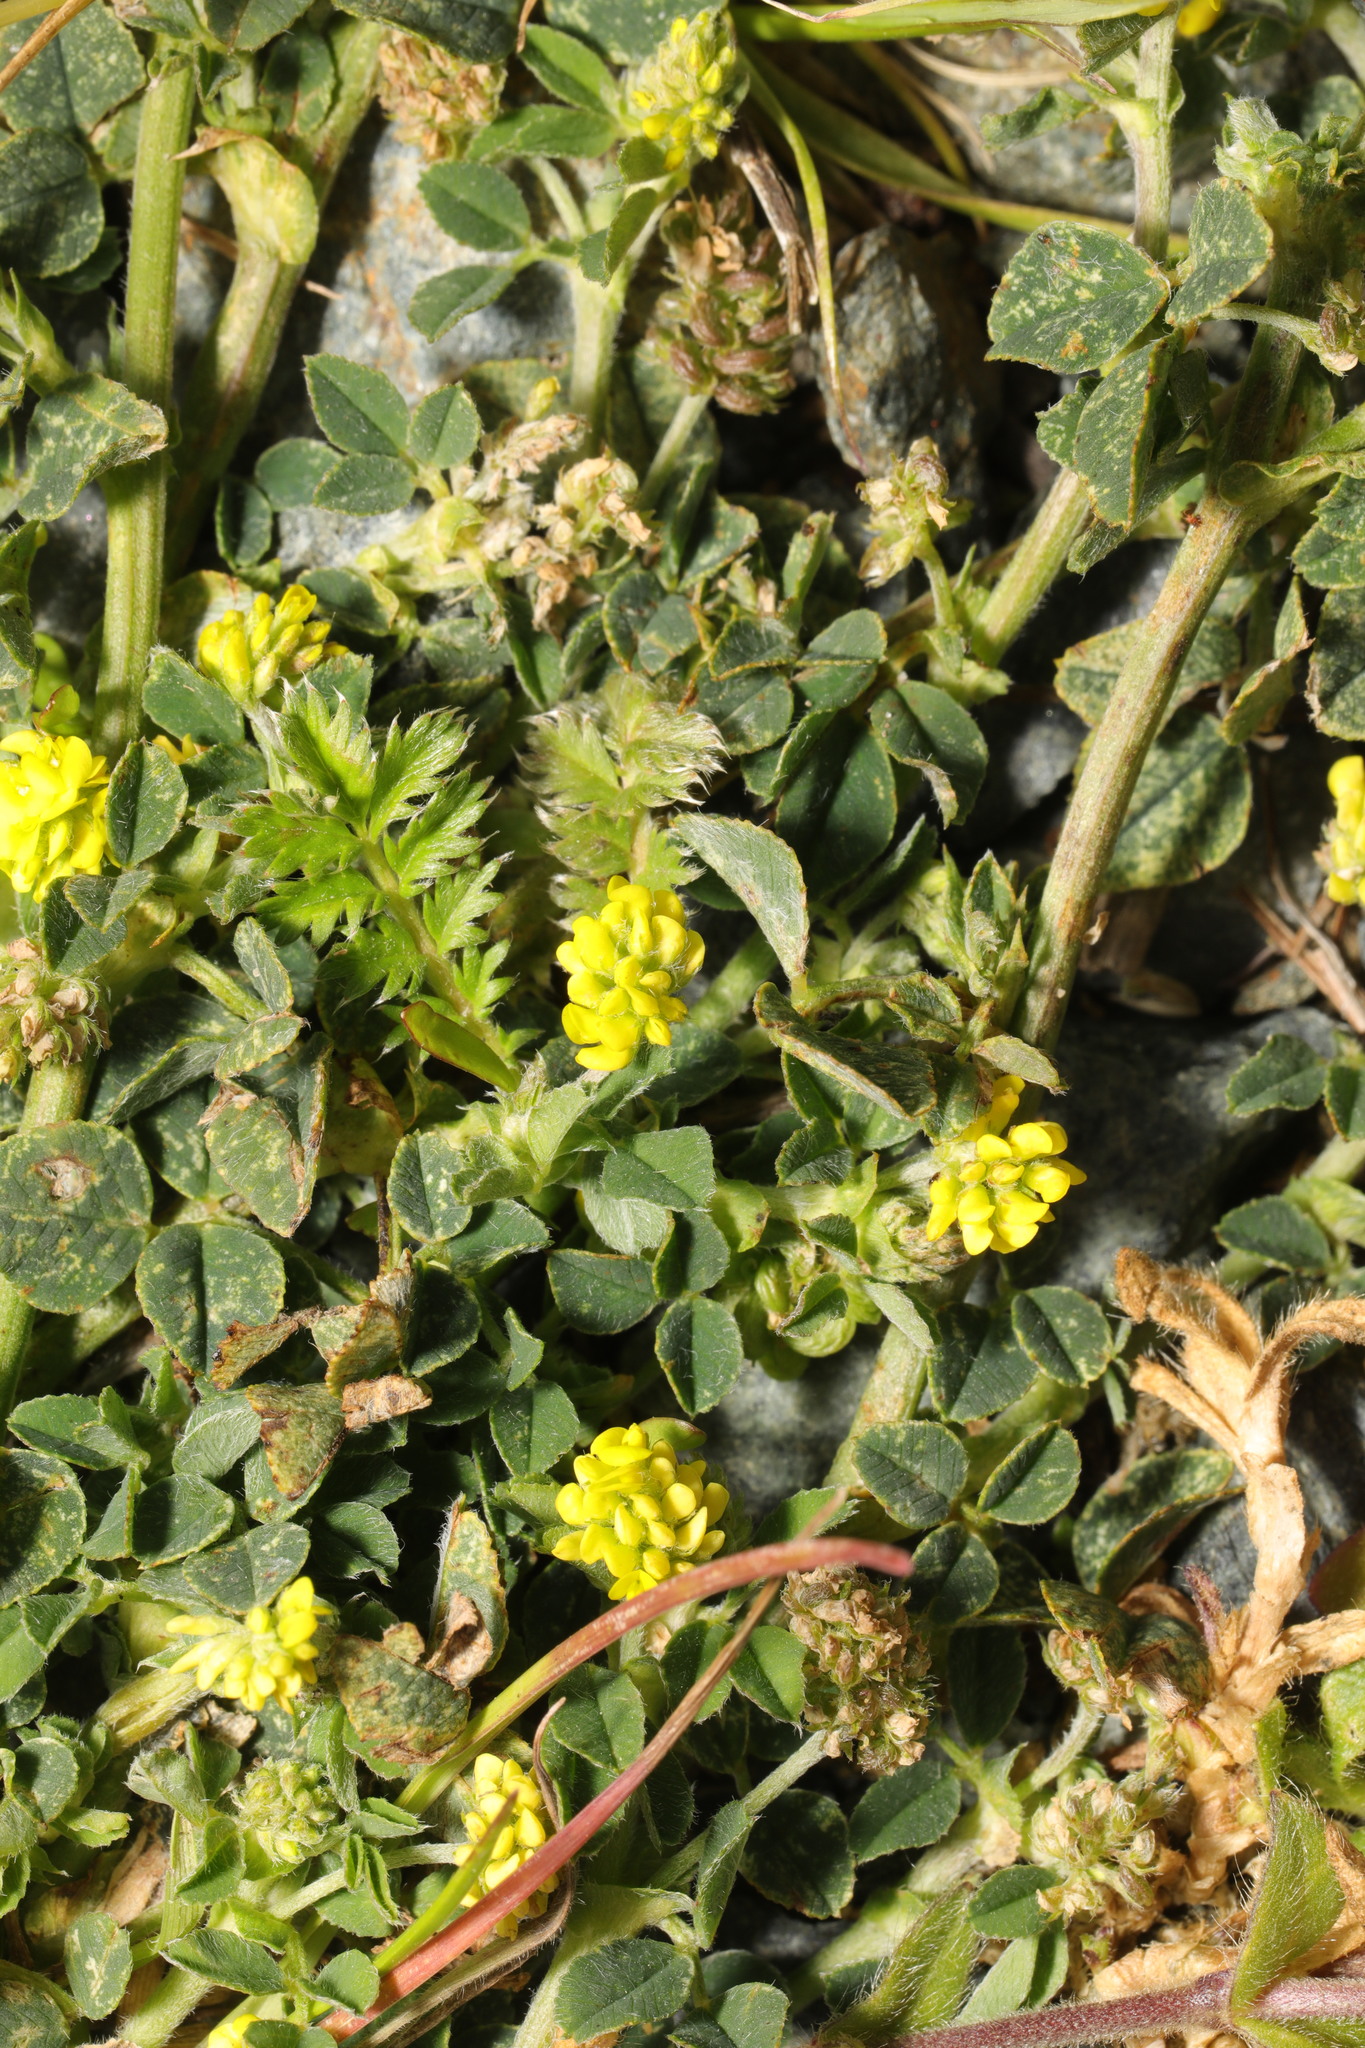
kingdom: Plantae
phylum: Tracheophyta
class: Magnoliopsida
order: Fabales
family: Fabaceae
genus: Medicago
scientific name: Medicago lupulina
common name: Black medick
